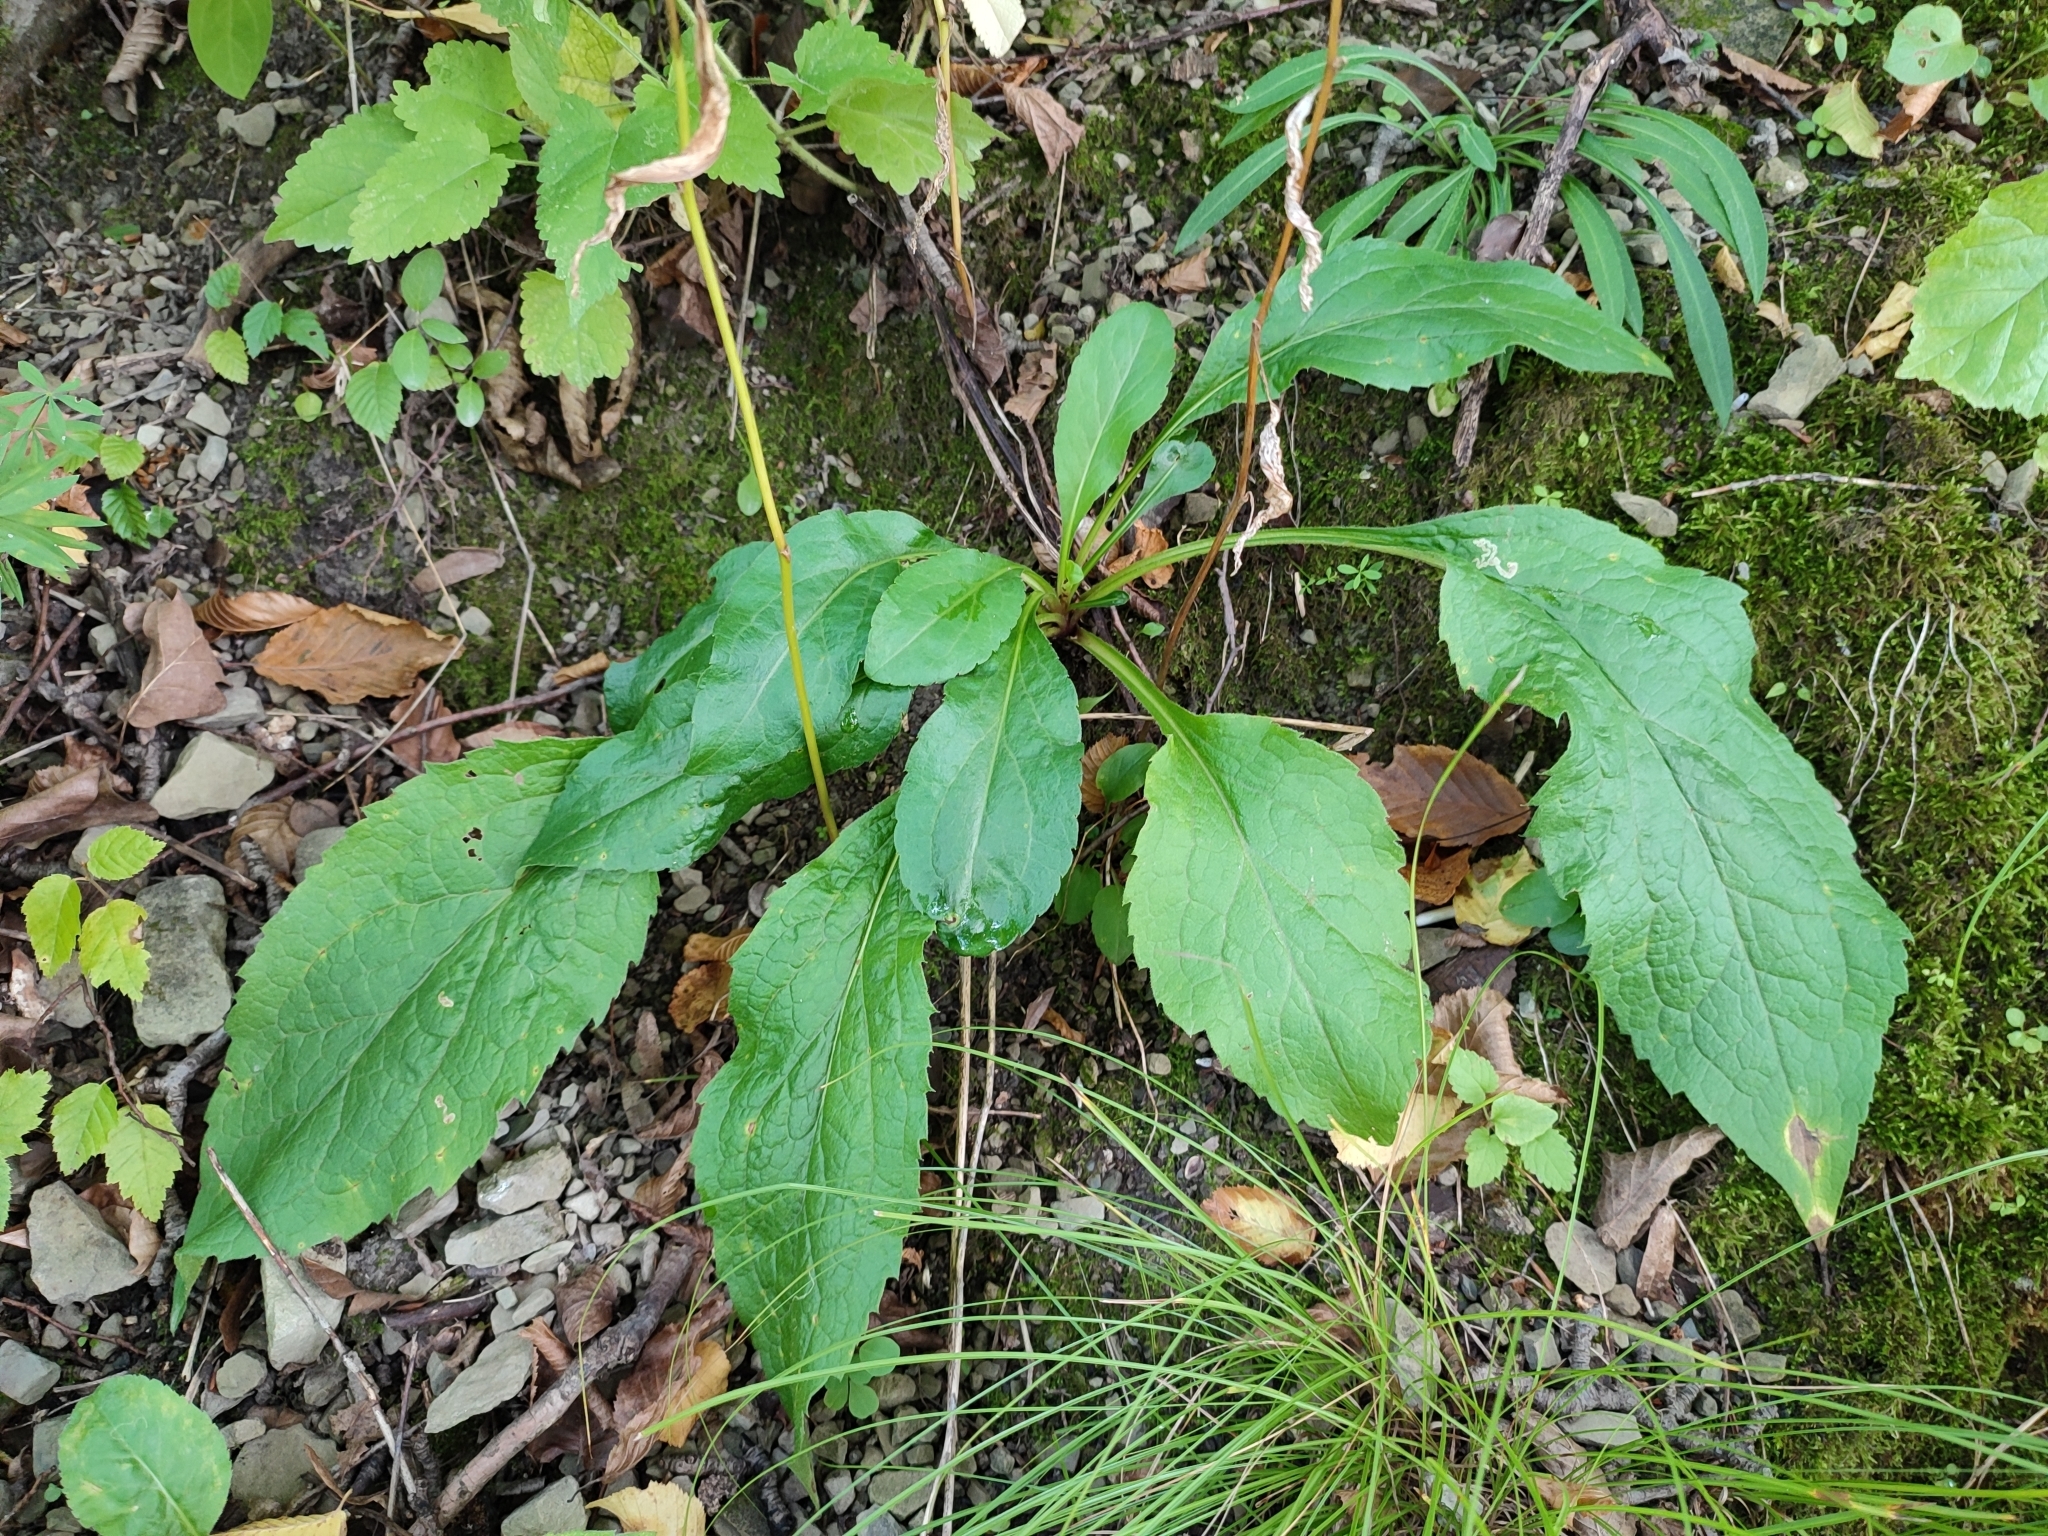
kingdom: Plantae
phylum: Tracheophyta
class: Magnoliopsida
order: Asterales
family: Asteraceae
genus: Solidago
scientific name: Solidago virgaurea
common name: Goldenrod
